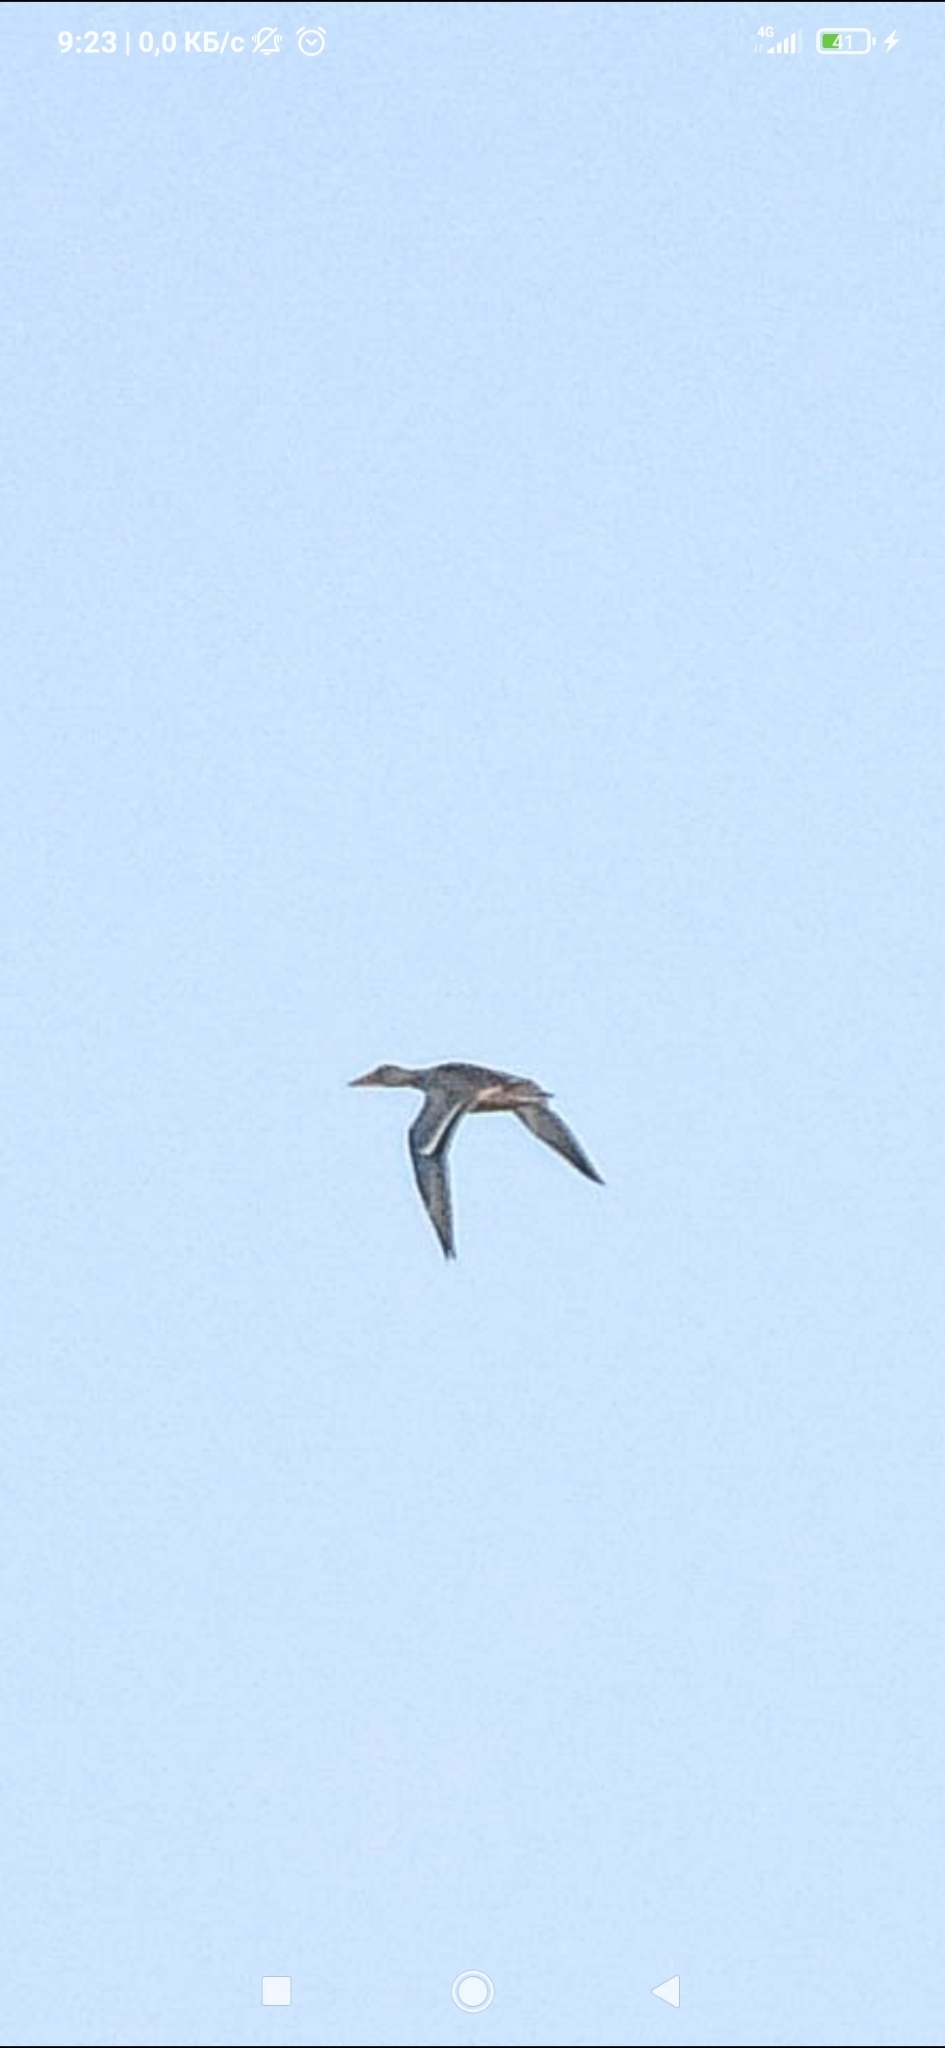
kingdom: Animalia
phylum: Chordata
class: Aves
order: Anseriformes
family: Anatidae
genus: Spatula
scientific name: Spatula clypeata
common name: Northern shoveler
